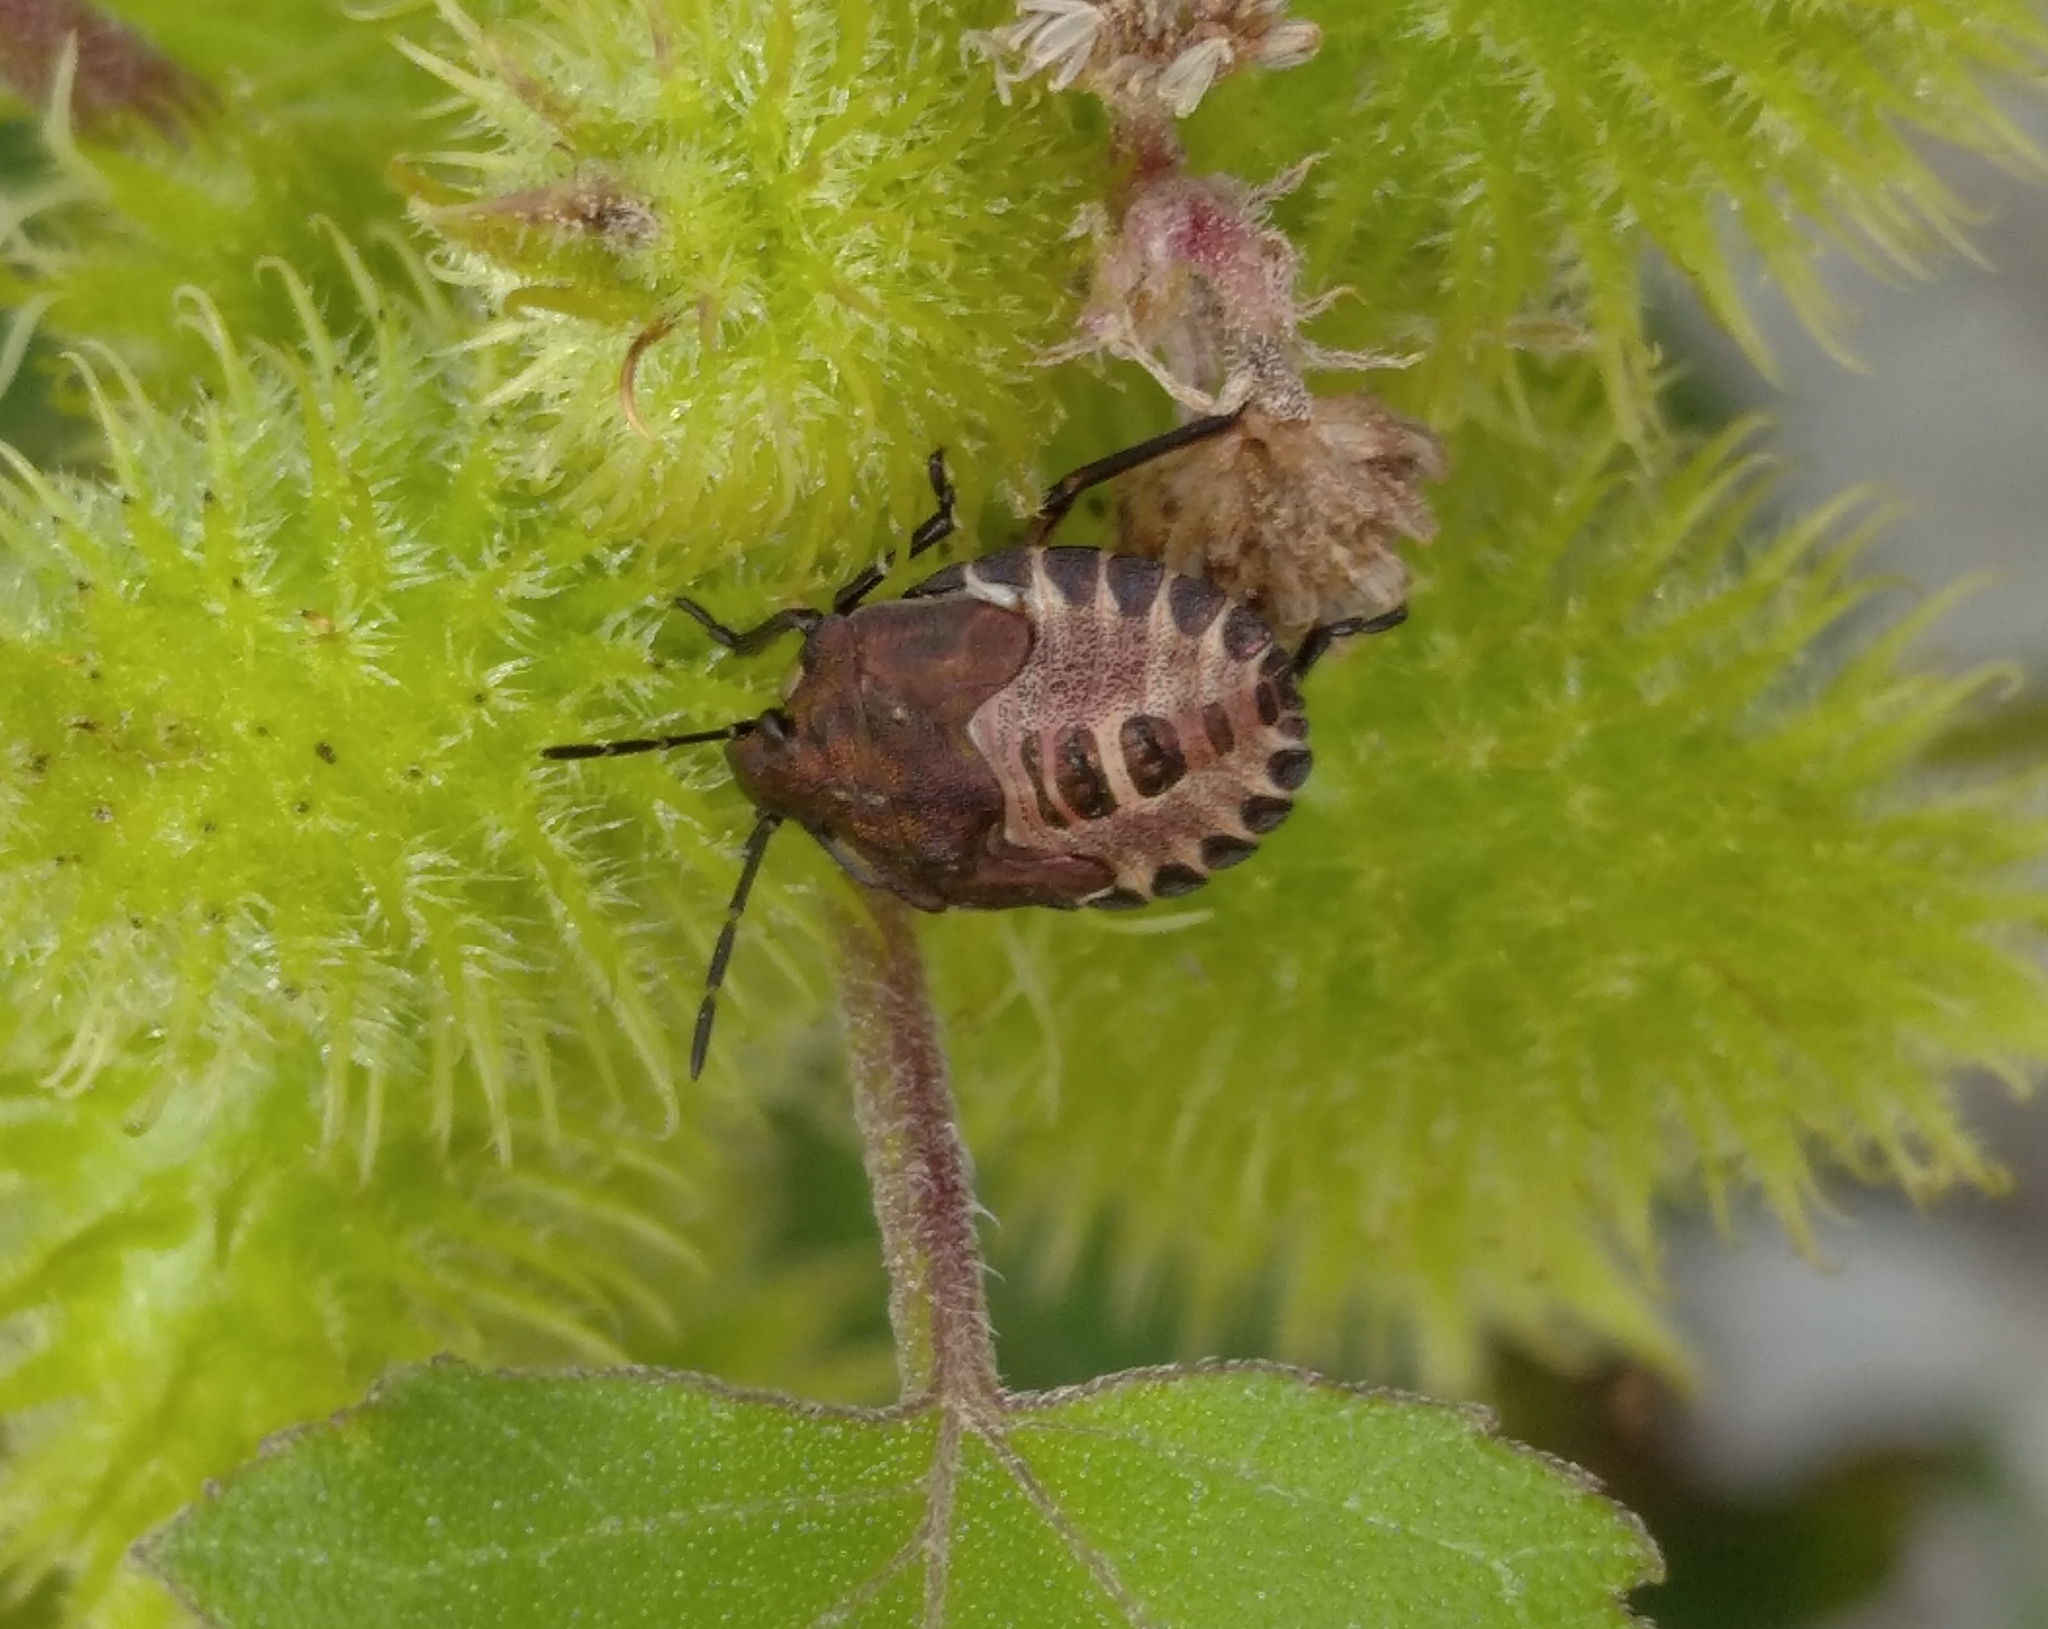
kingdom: Animalia
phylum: Arthropoda
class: Insecta
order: Hemiptera
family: Pentatomidae
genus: Carpocoris
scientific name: Carpocoris purpureipennis
